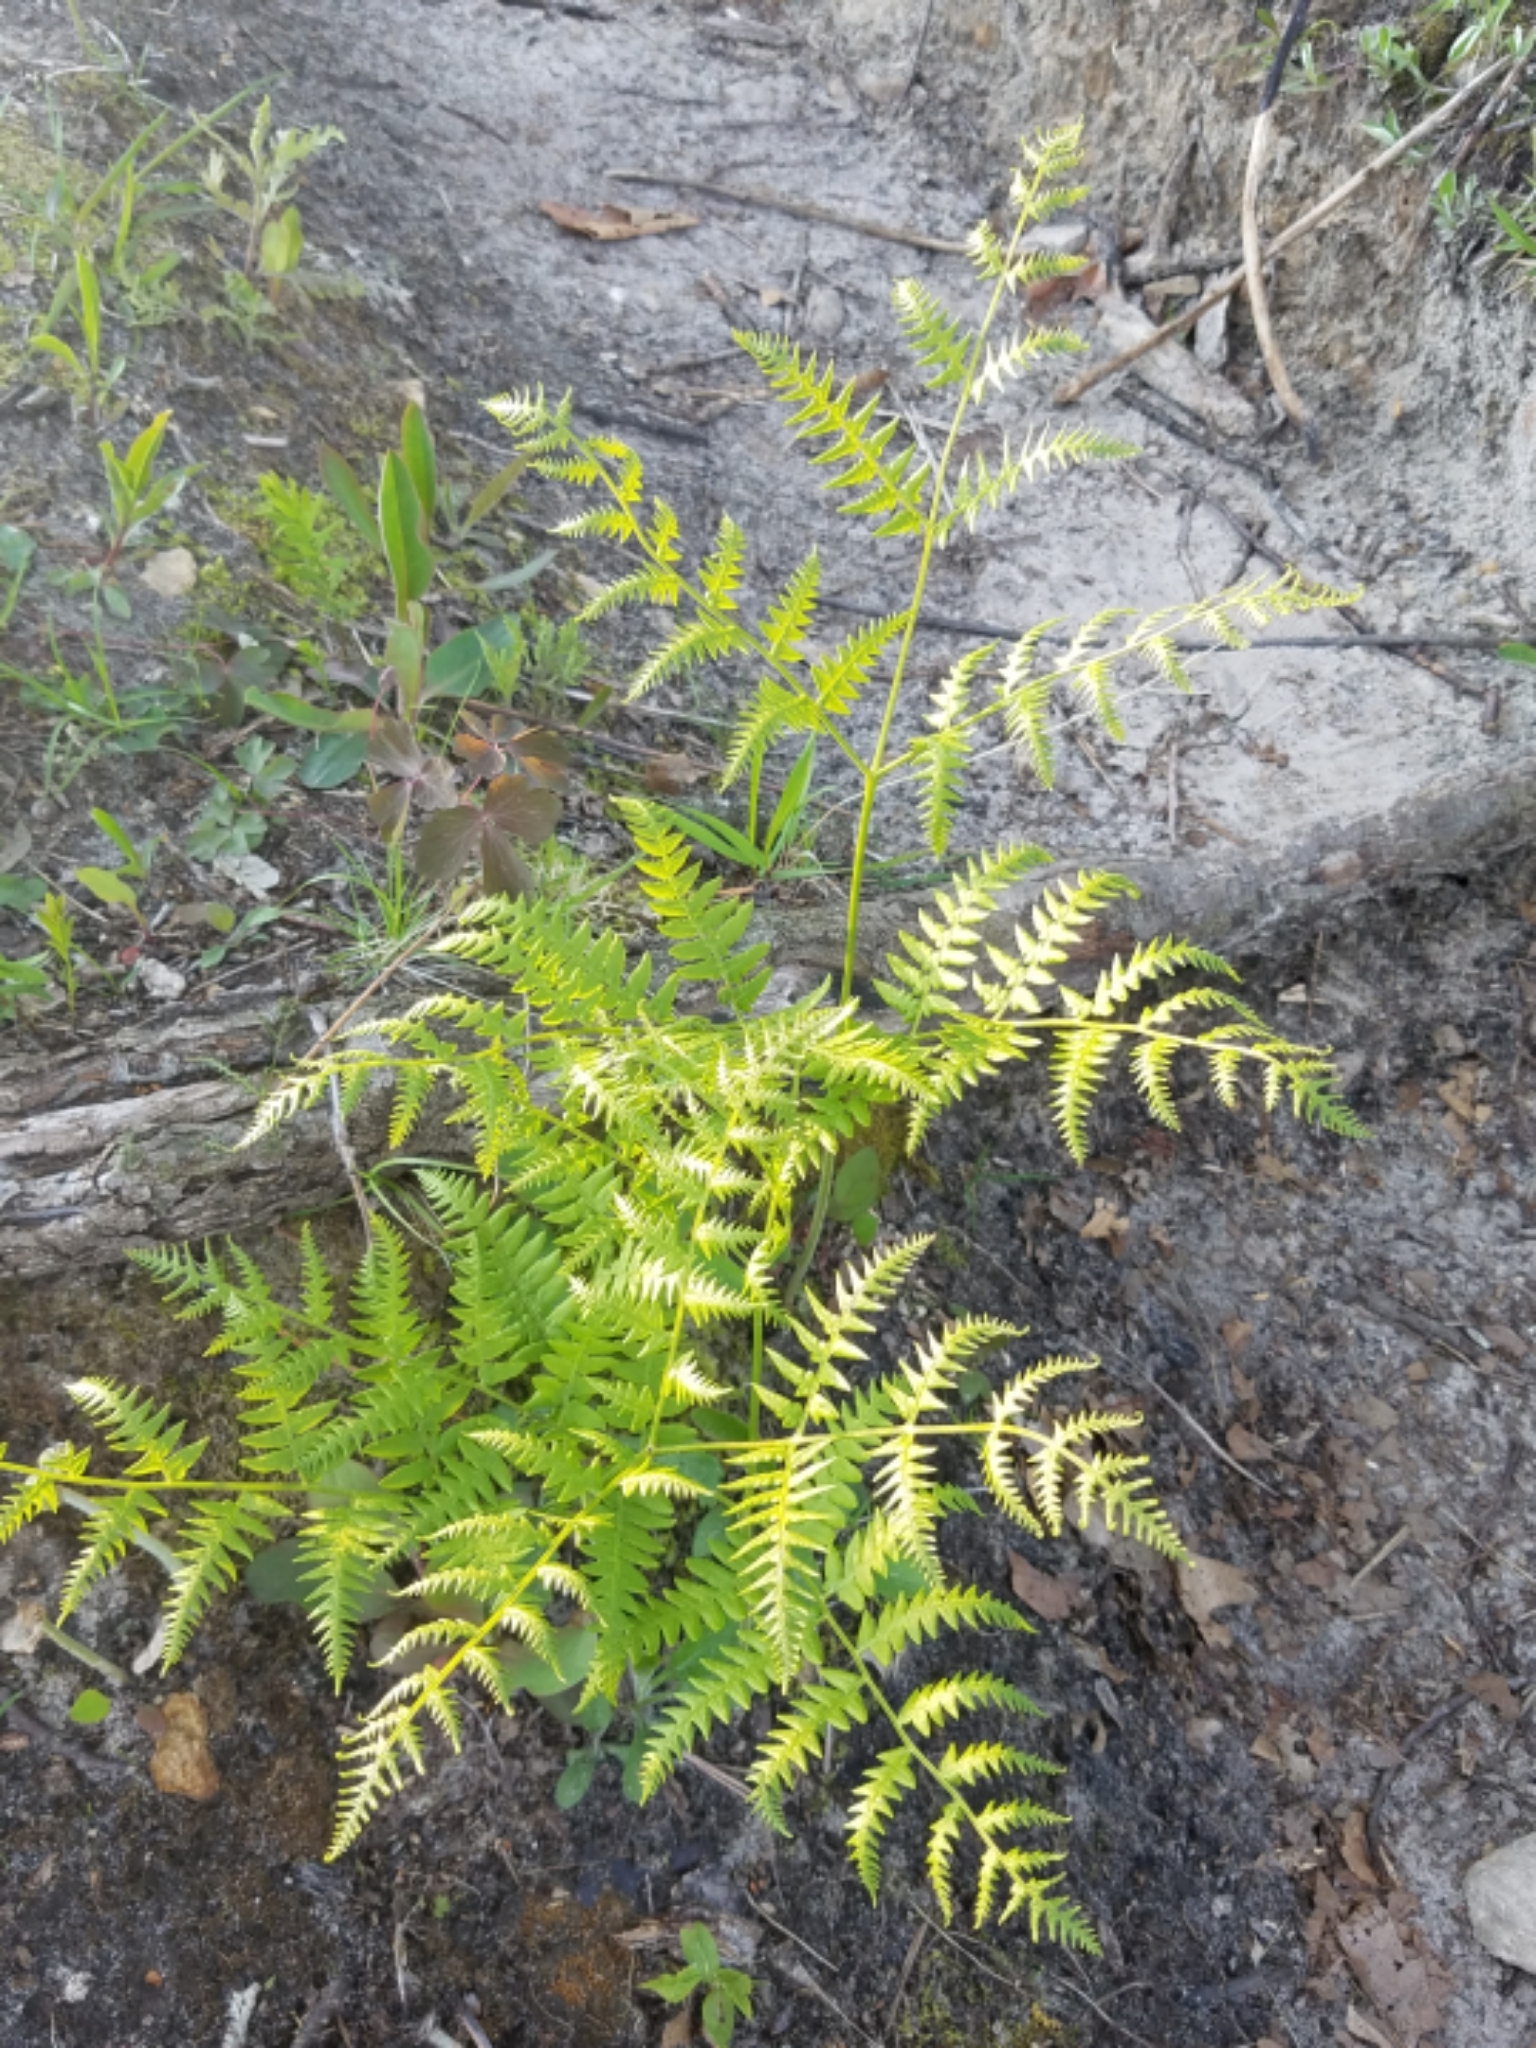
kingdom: Plantae
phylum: Tracheophyta
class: Polypodiopsida
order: Polypodiales
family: Dennstaedtiaceae
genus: Pteridium
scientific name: Pteridium aquilinum
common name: Bracken
